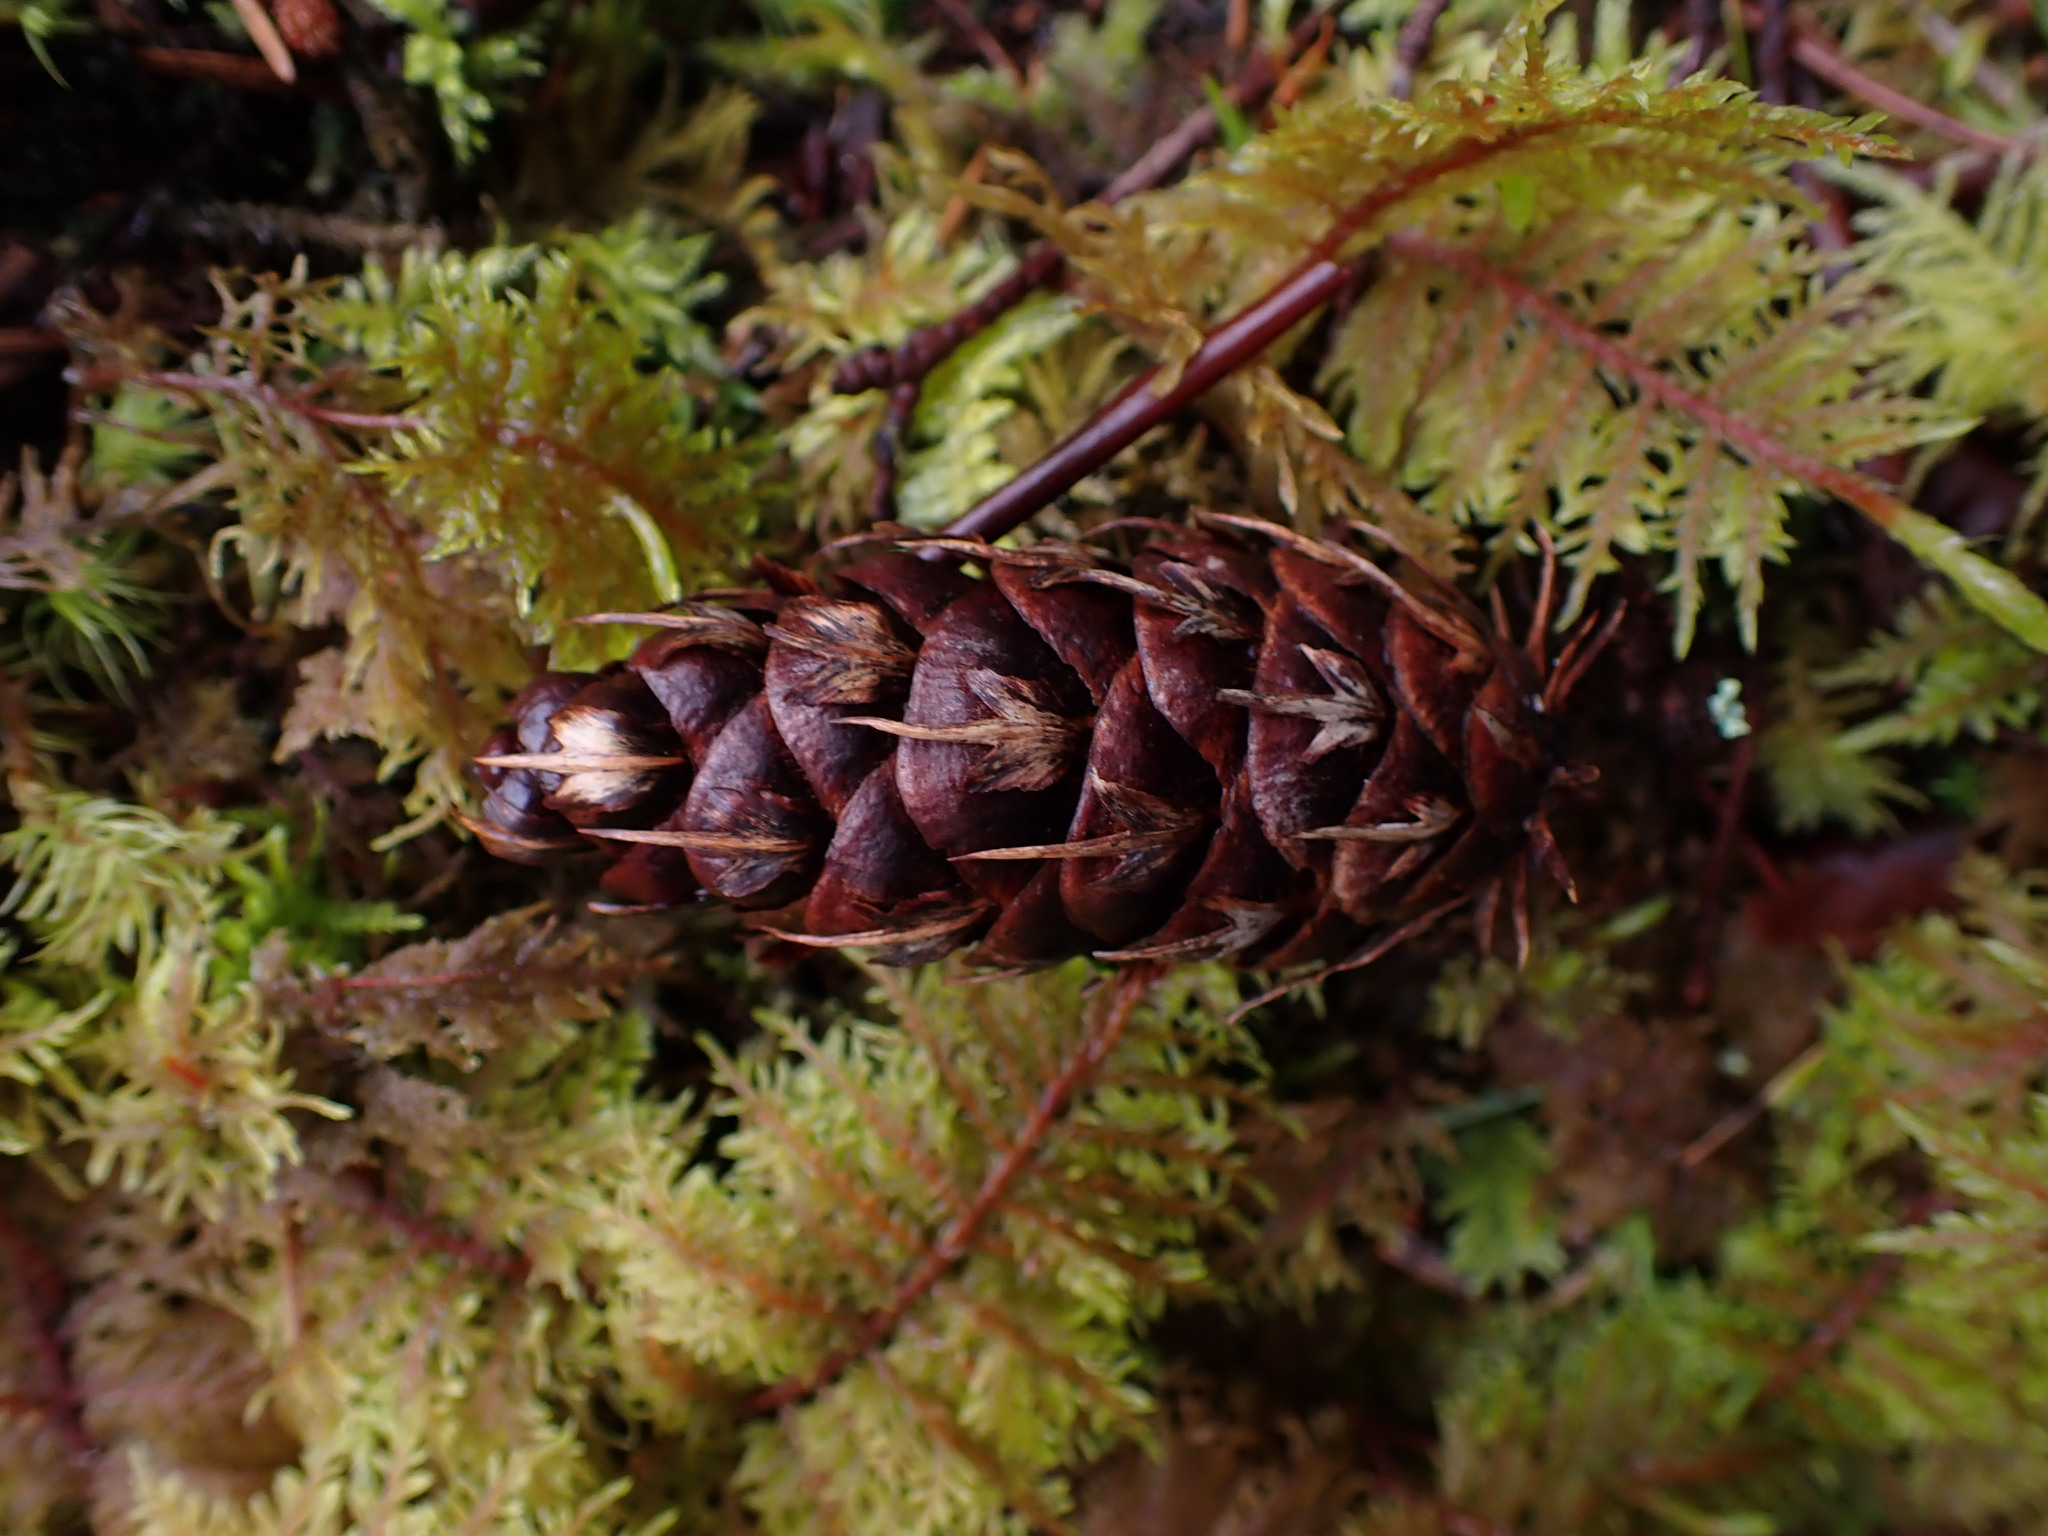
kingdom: Plantae
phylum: Tracheophyta
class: Pinopsida
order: Pinales
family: Pinaceae
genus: Pseudotsuga
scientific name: Pseudotsuga menziesii
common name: Douglas fir
